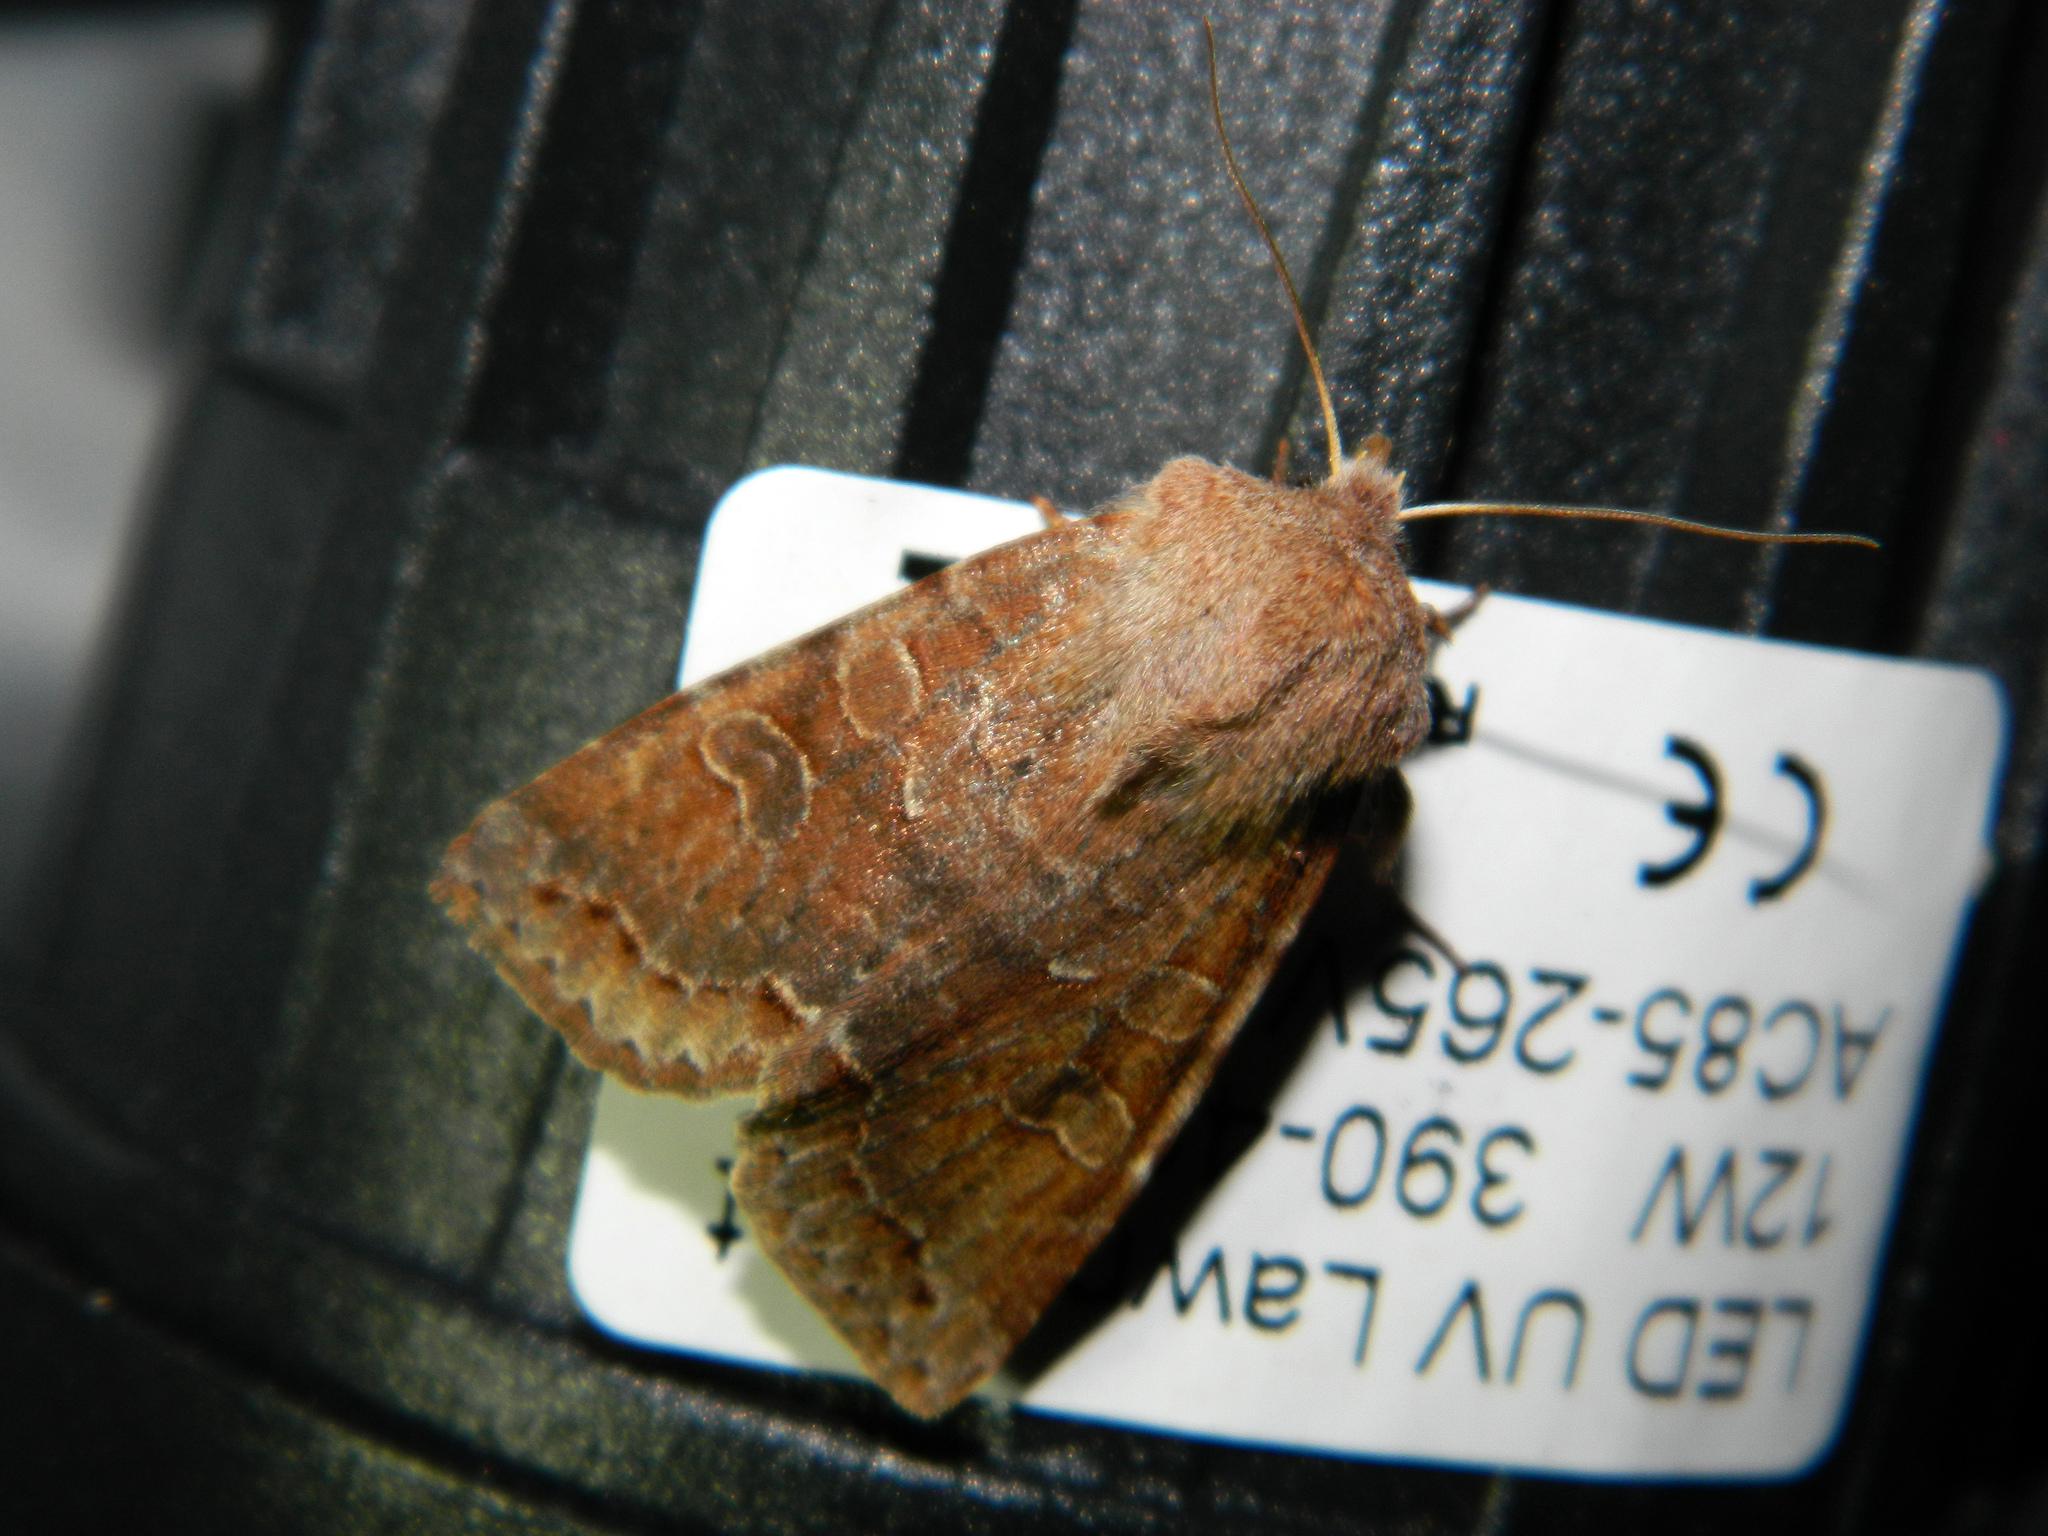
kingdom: Animalia
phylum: Arthropoda
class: Insecta
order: Lepidoptera
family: Noctuidae
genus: Orthosia
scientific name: Orthosia revicta
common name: Rusty whitesided caterpillar
